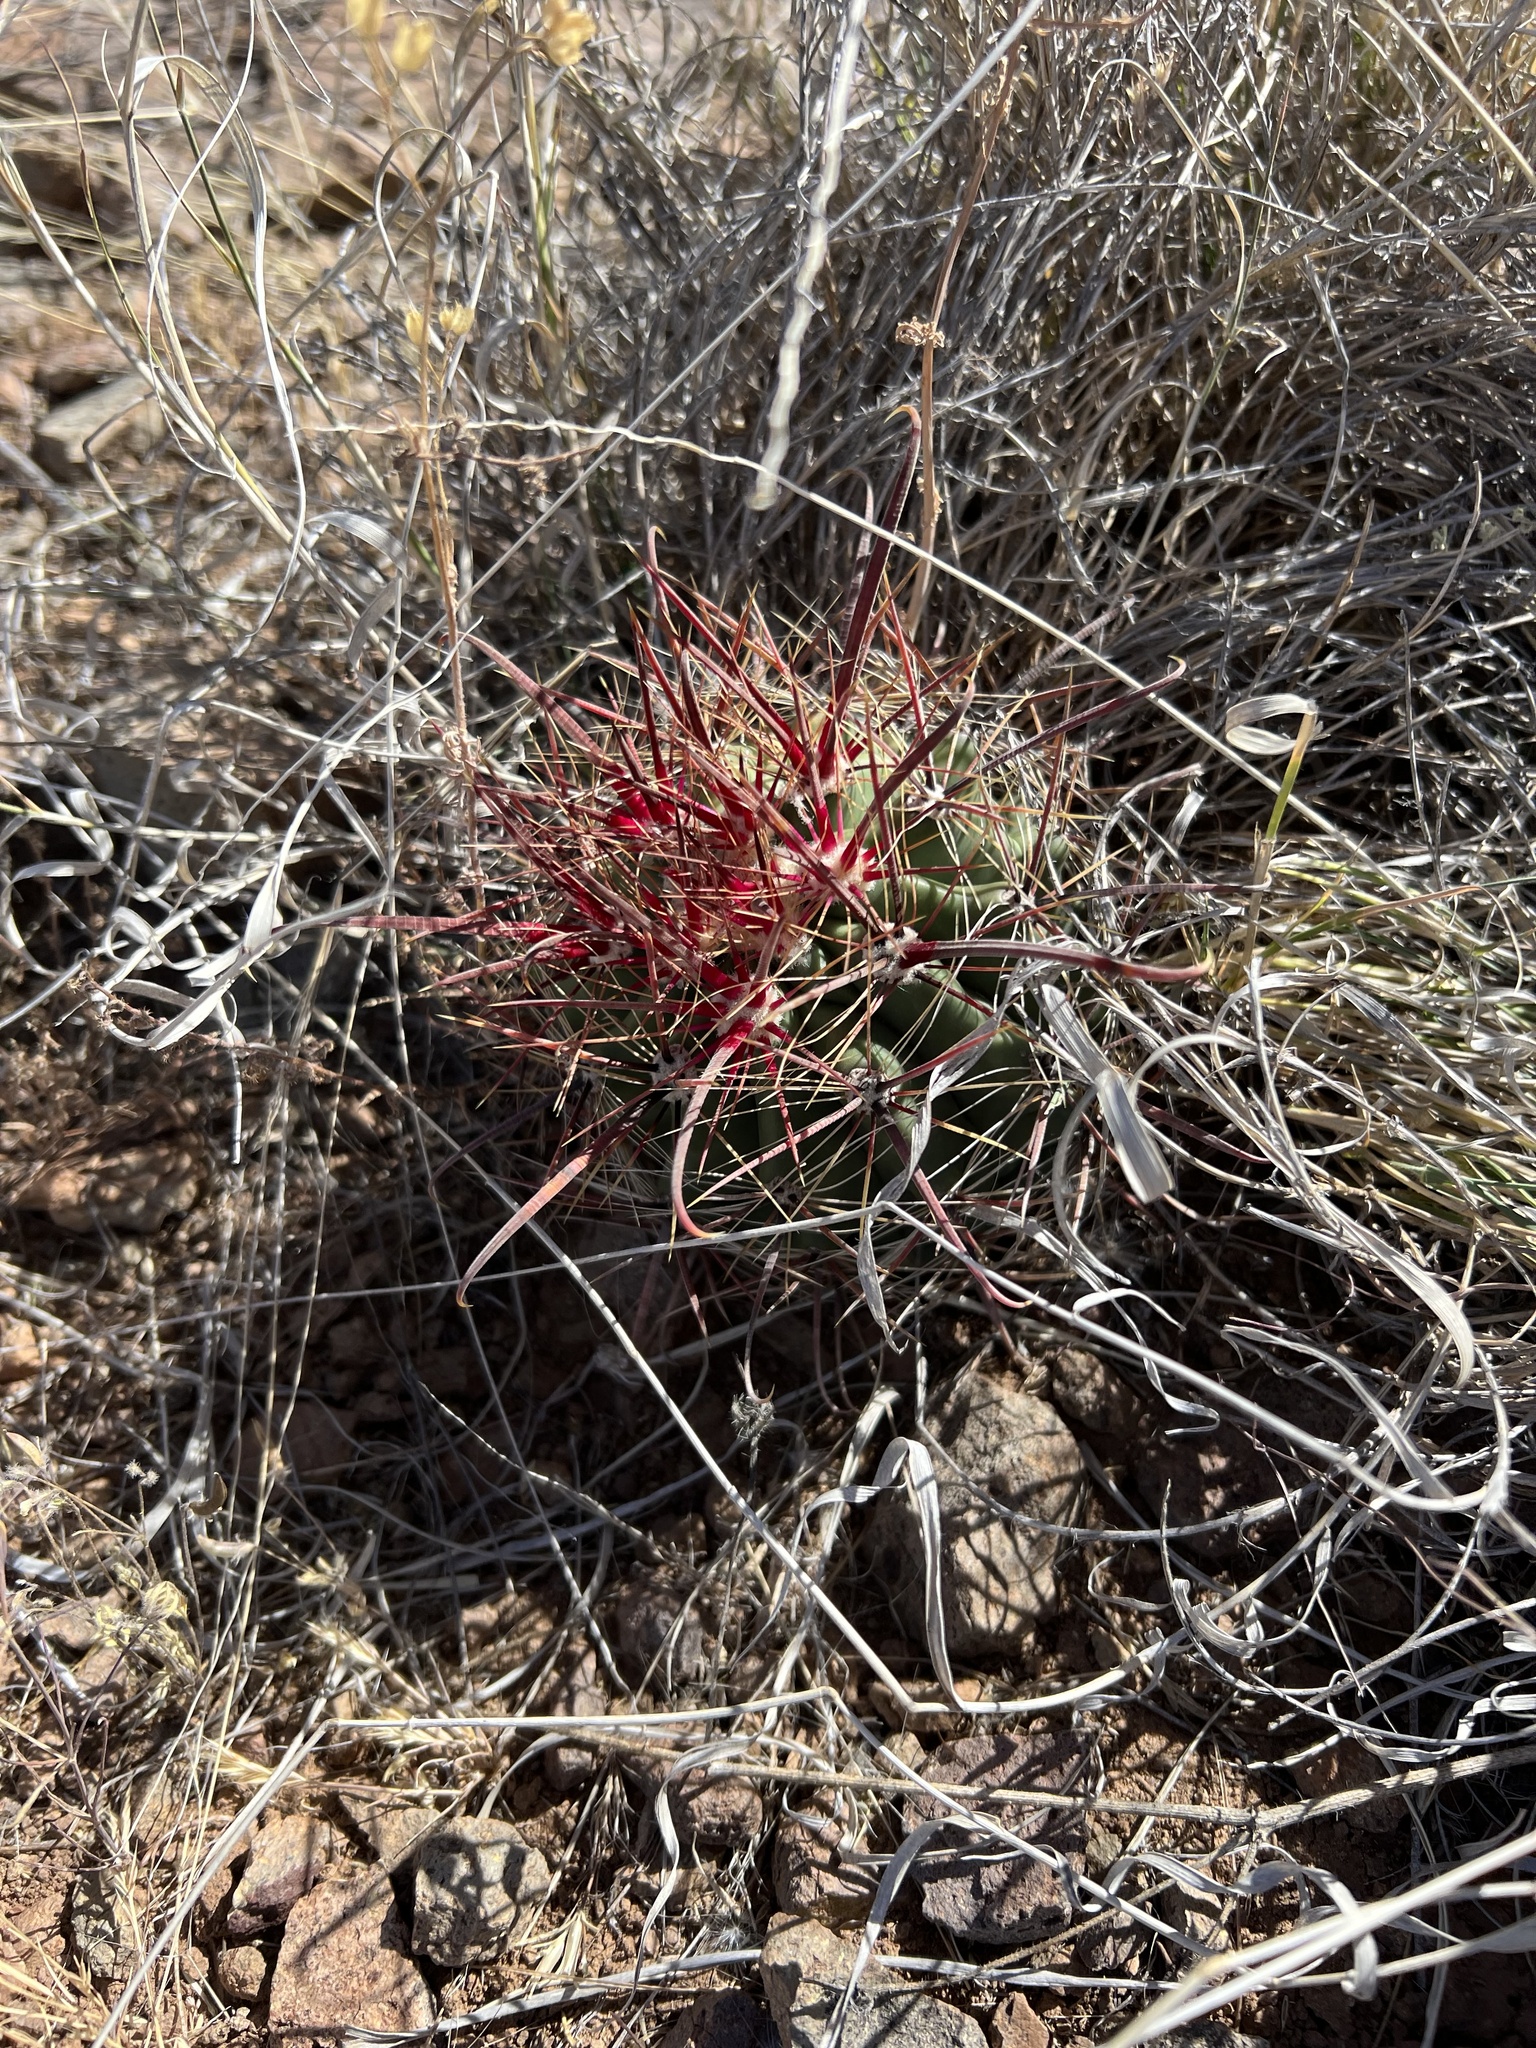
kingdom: Plantae
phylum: Tracheophyta
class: Magnoliopsida
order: Caryophyllales
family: Cactaceae
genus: Ferocactus
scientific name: Ferocactus wislizeni
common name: Candy barrel cactus
